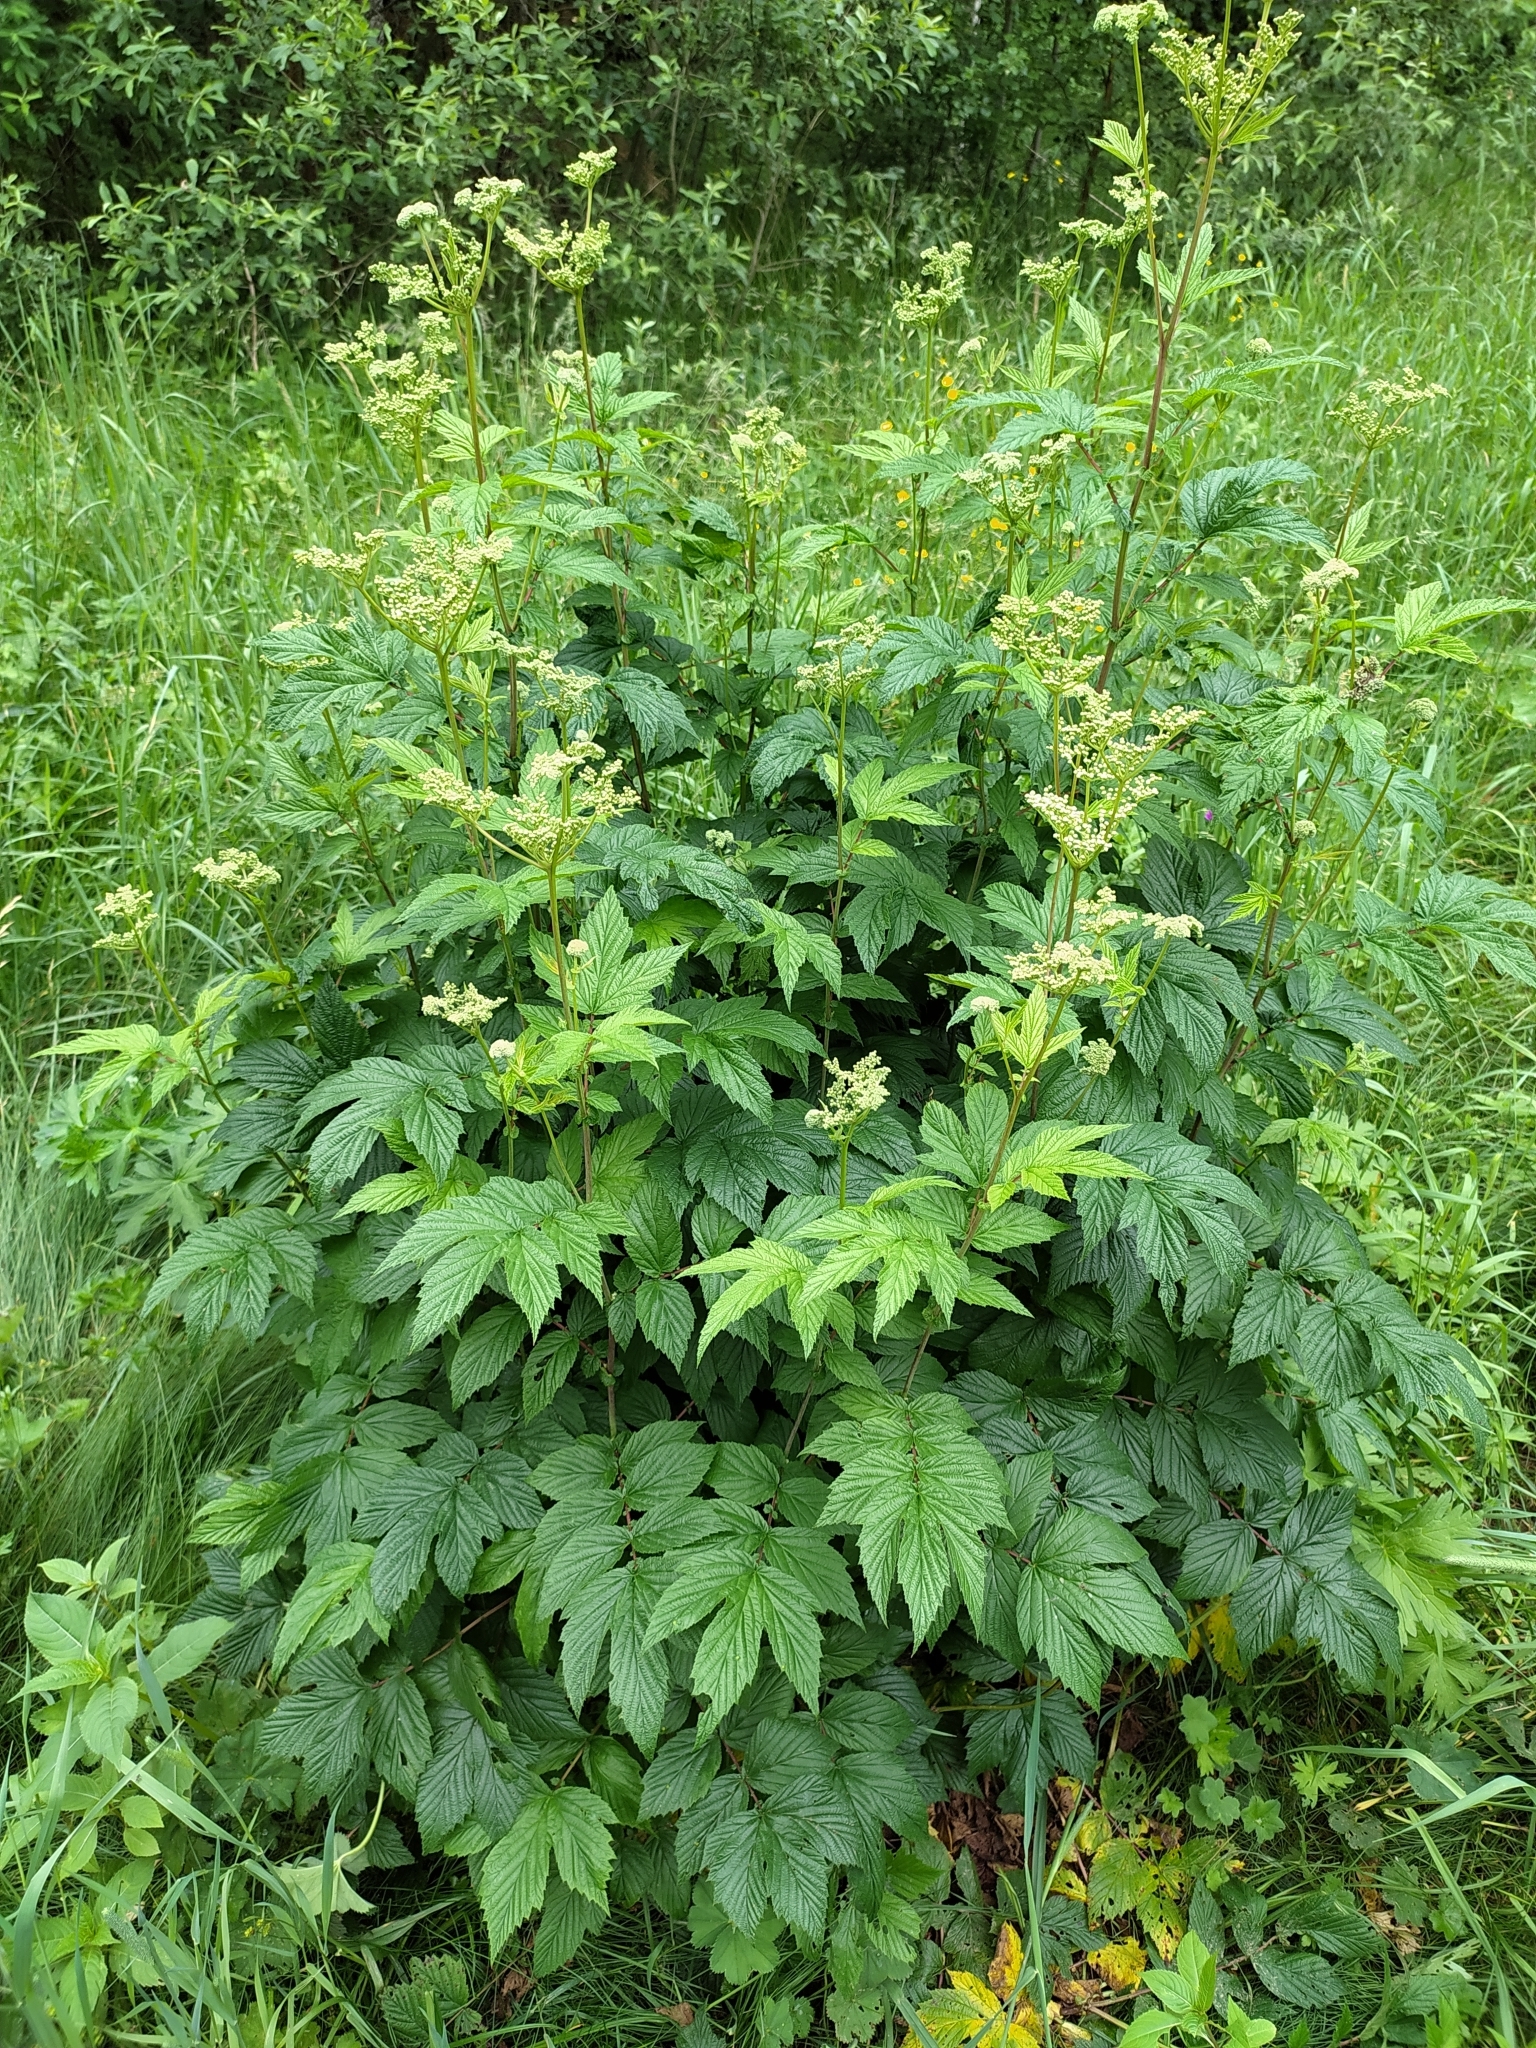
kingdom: Plantae
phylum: Tracheophyta
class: Magnoliopsida
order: Rosales
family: Rosaceae
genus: Filipendula
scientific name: Filipendula ulmaria
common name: Meadowsweet
